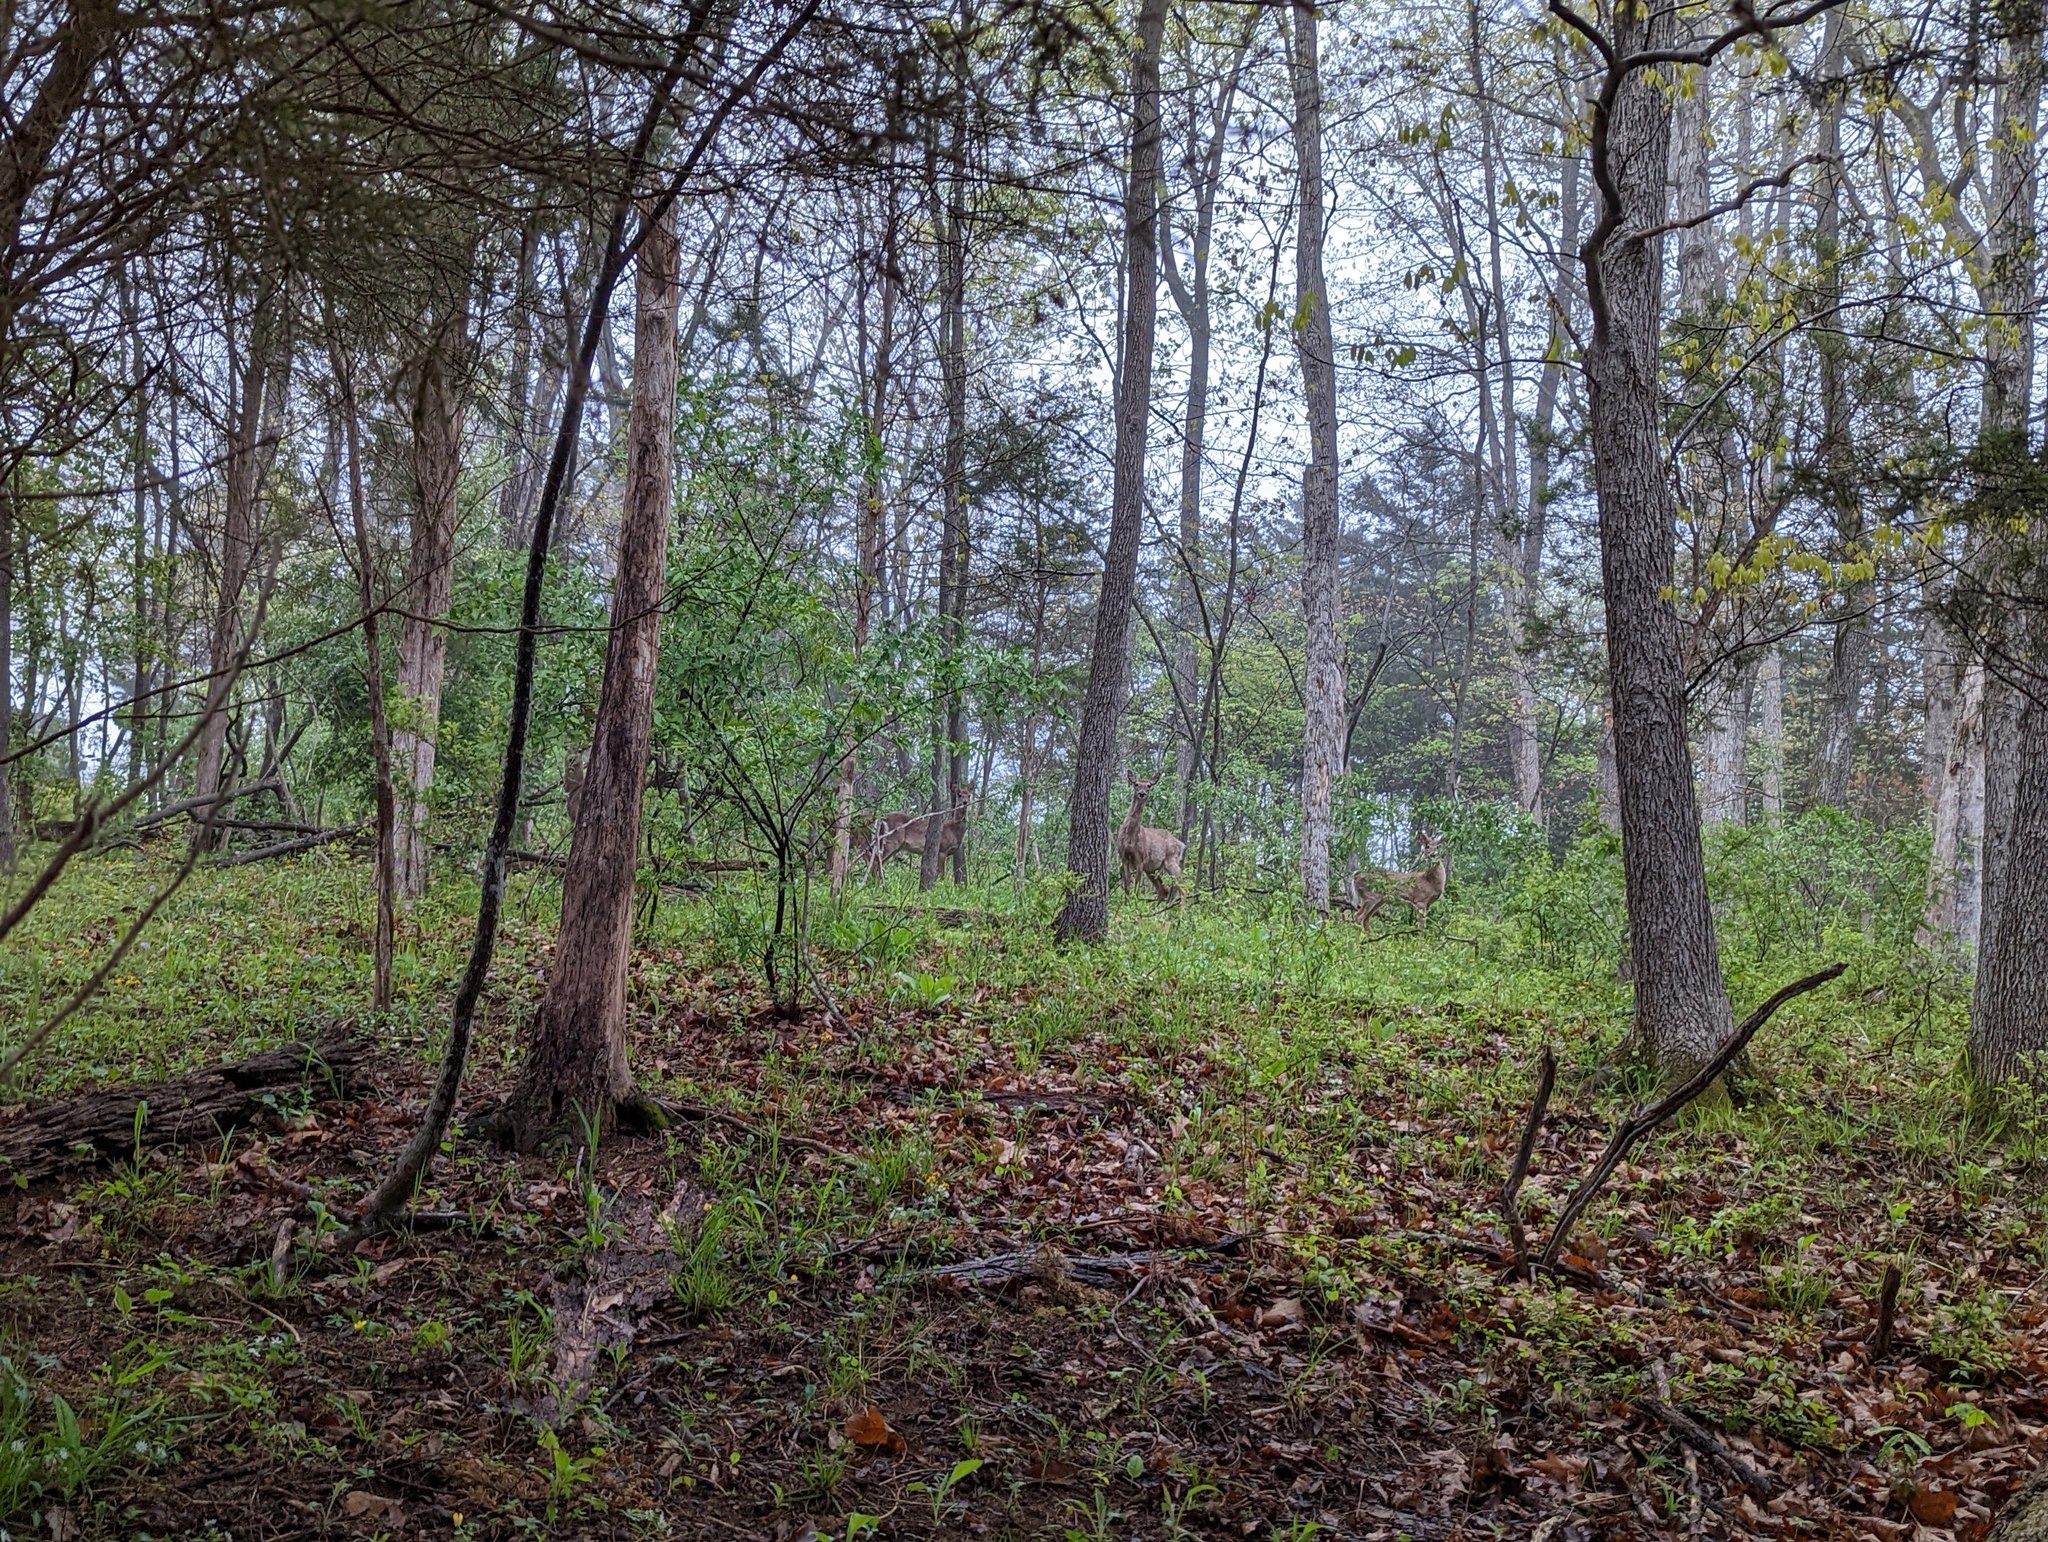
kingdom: Animalia
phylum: Chordata
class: Mammalia
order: Artiodactyla
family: Cervidae
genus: Odocoileus
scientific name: Odocoileus virginianus
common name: White-tailed deer
